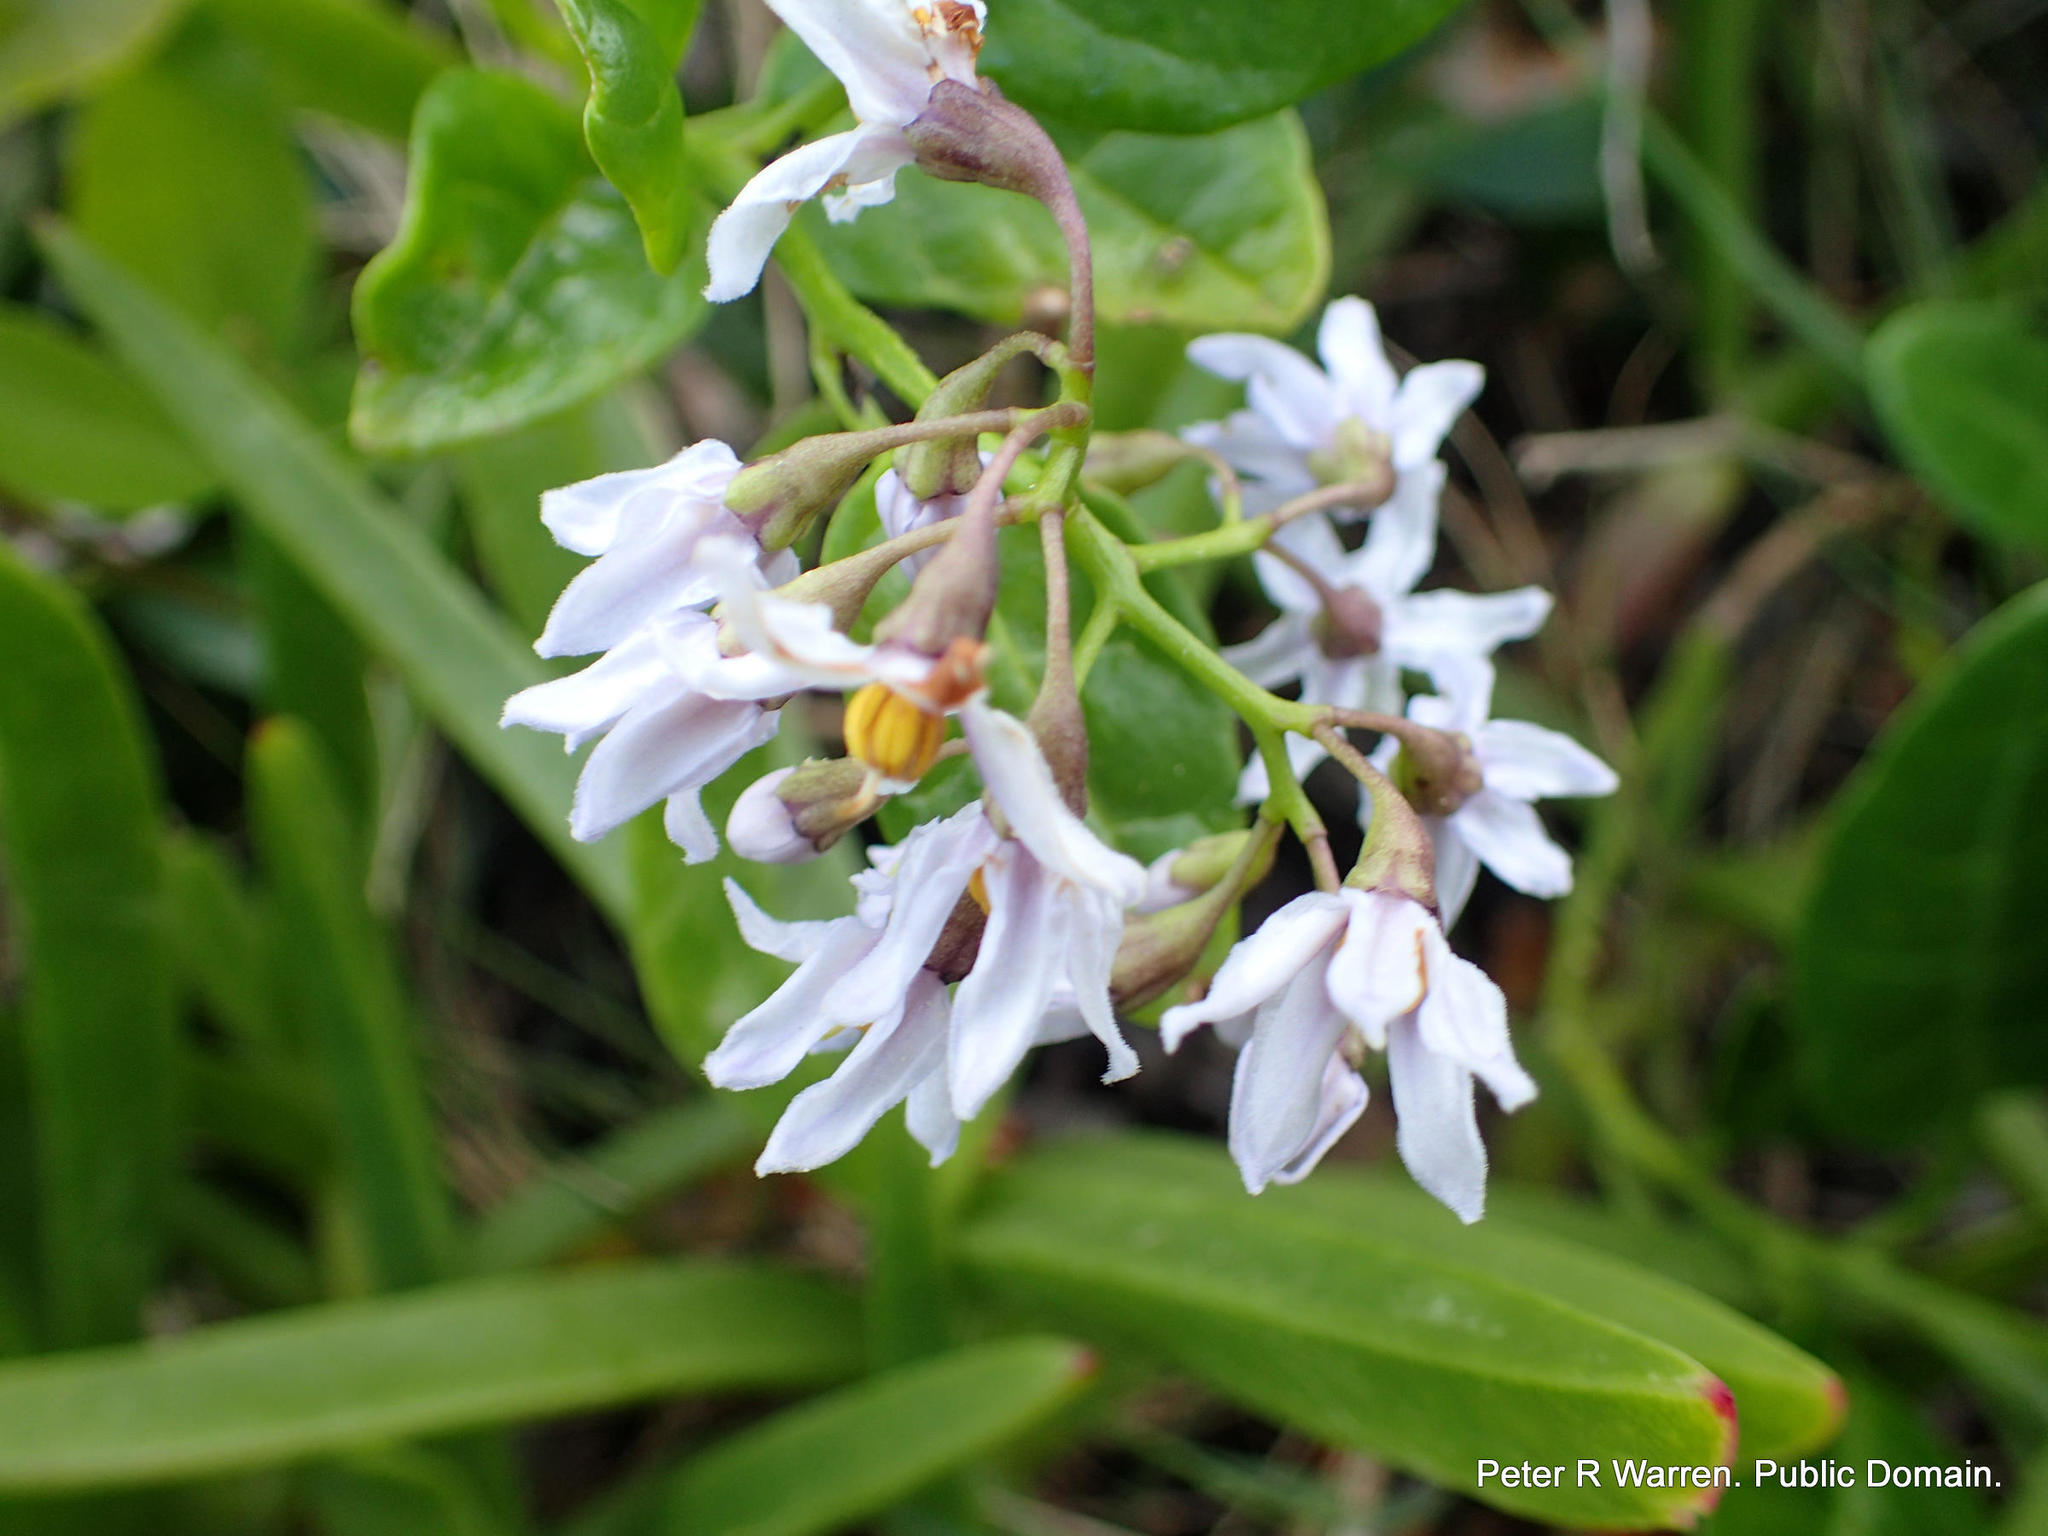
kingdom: Plantae
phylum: Tracheophyta
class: Magnoliopsida
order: Solanales
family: Solanaceae
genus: Solanum
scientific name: Solanum africanum
